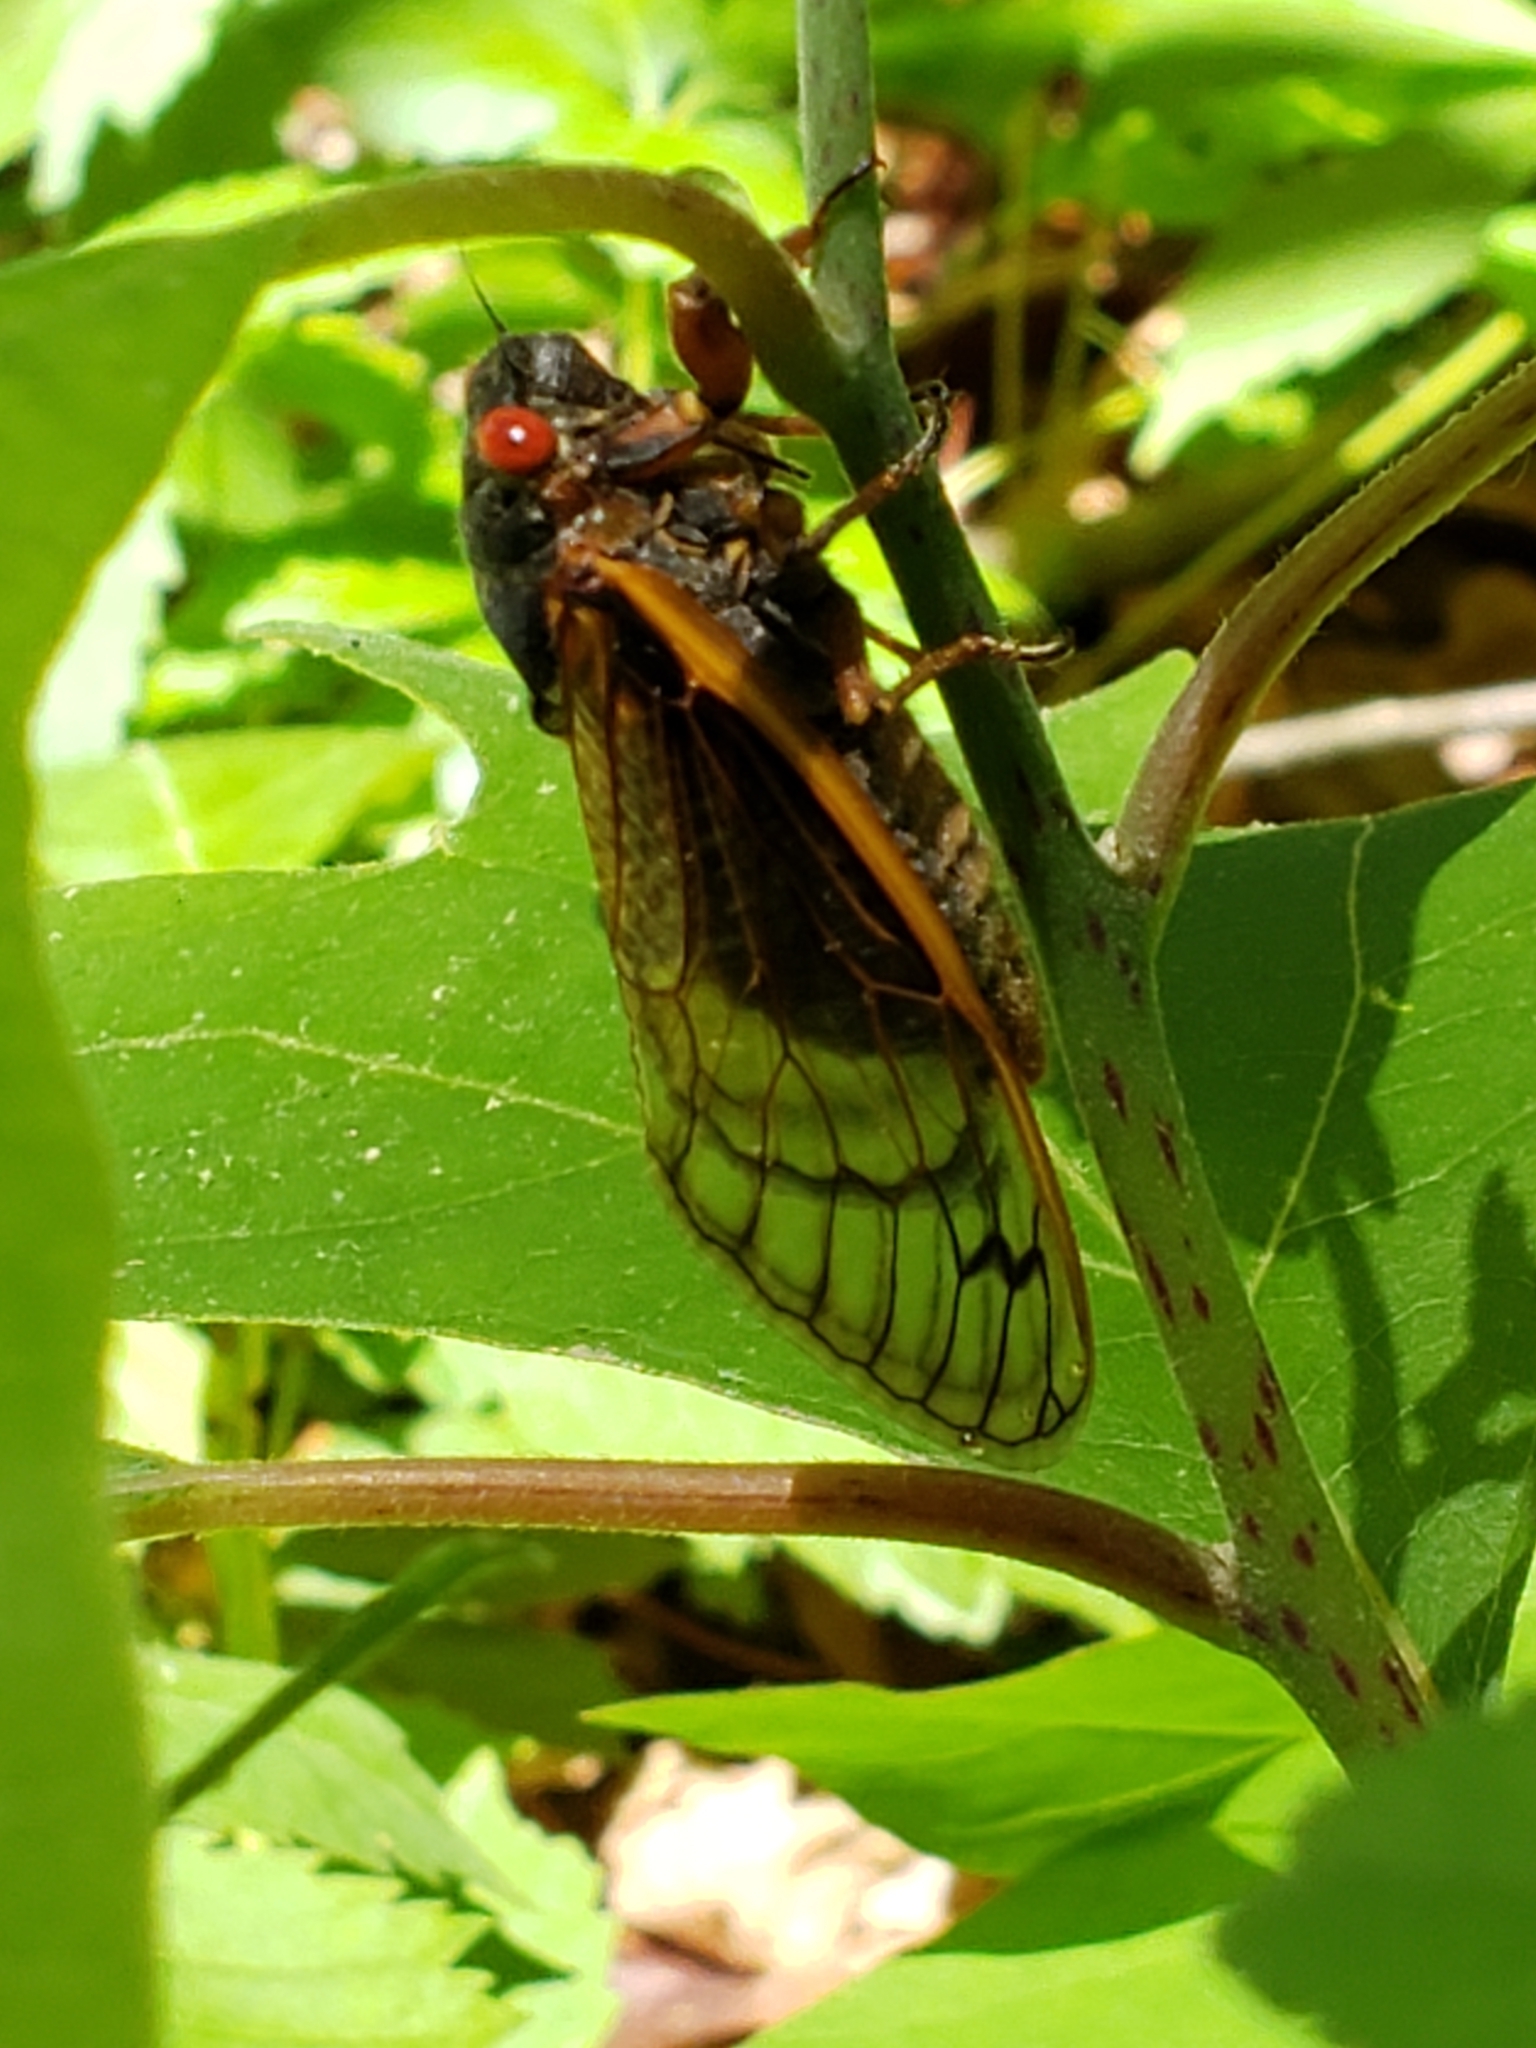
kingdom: Animalia
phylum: Arthropoda
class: Insecta
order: Hemiptera
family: Cicadidae
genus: Magicicada
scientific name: Magicicada septendecim
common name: Periodical cicada
